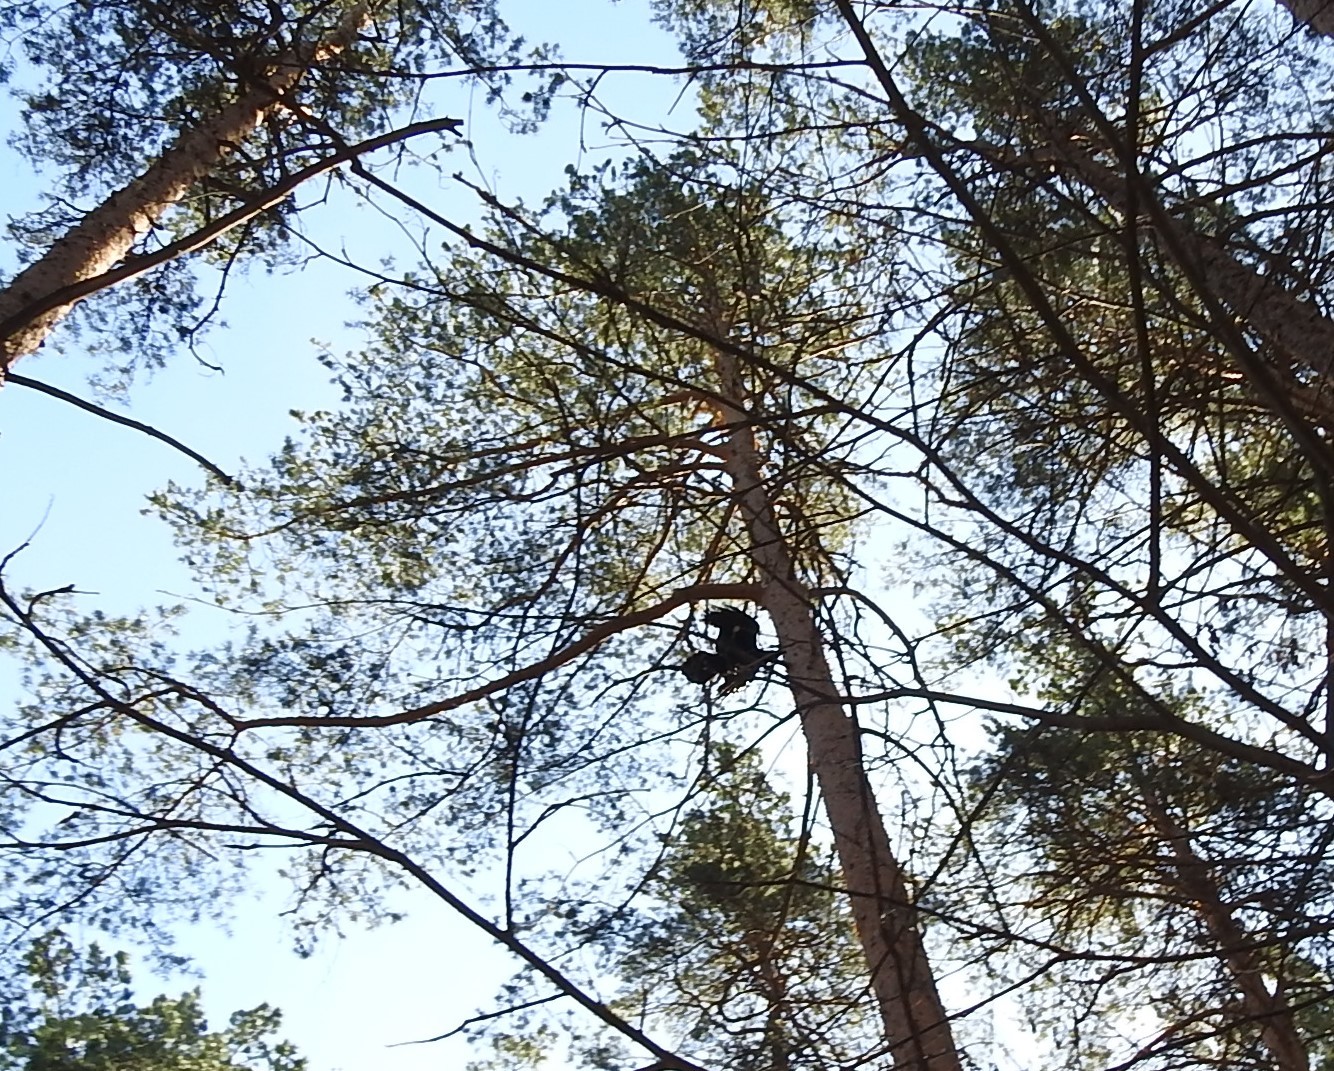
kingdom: Animalia
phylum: Chordata
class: Aves
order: Passeriformes
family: Corvidae
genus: Corvus
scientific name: Corvus corax
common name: Common raven
